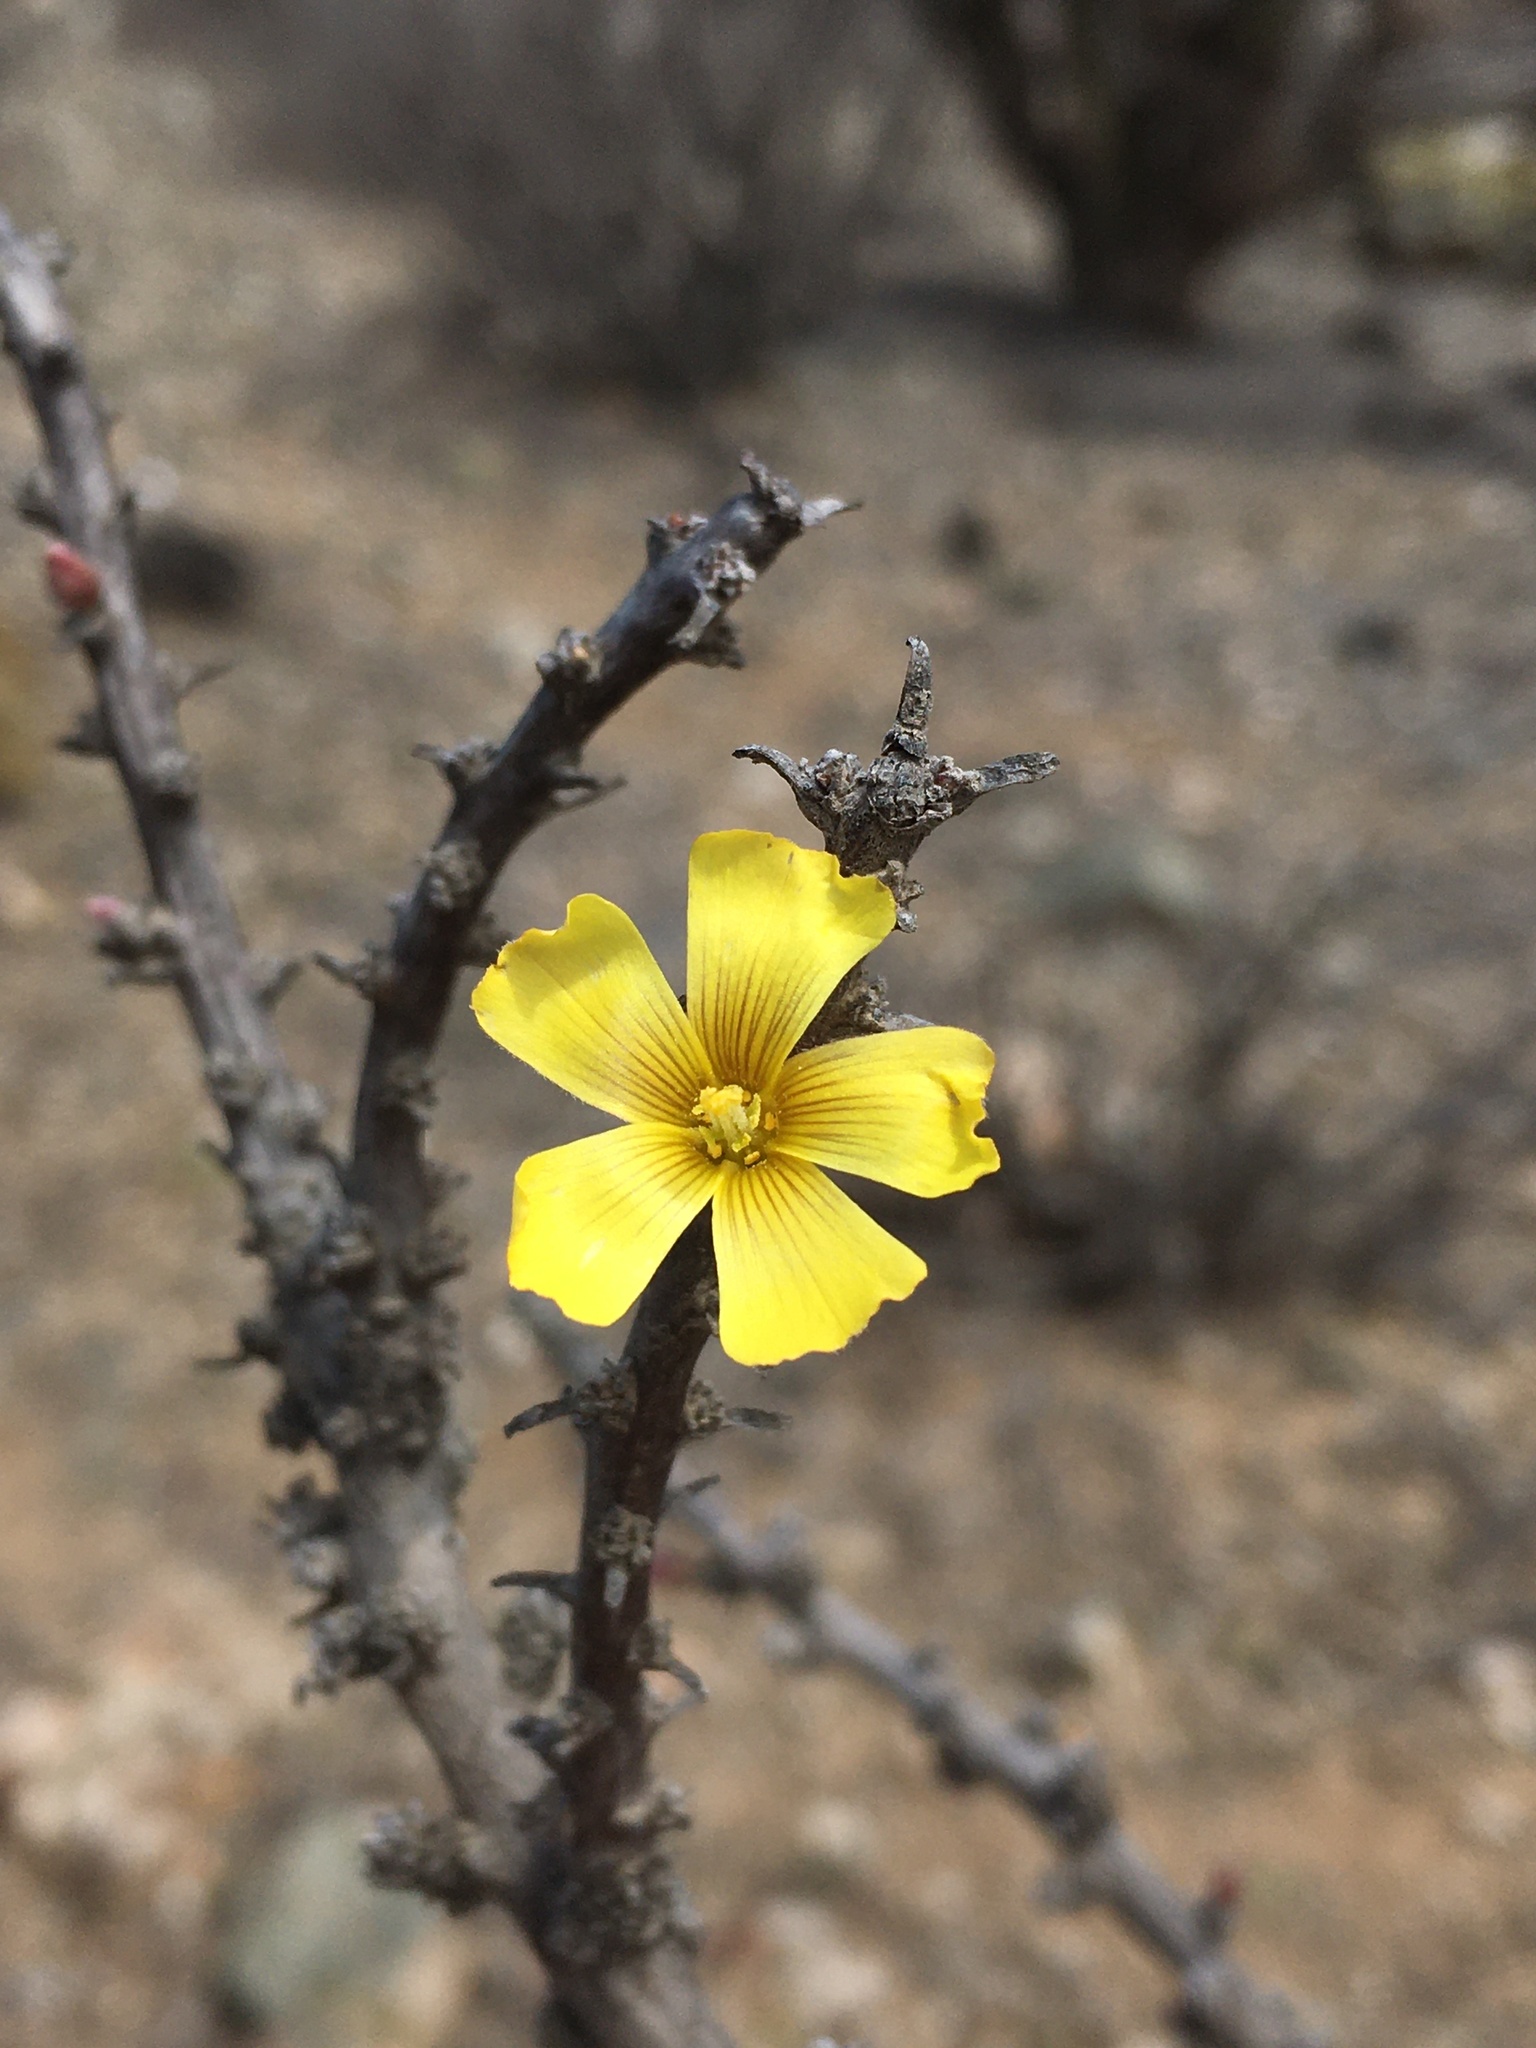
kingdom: Plantae
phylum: Tracheophyta
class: Magnoliopsida
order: Oxalidales
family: Oxalidaceae
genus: Oxalis
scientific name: Oxalis gigantea
